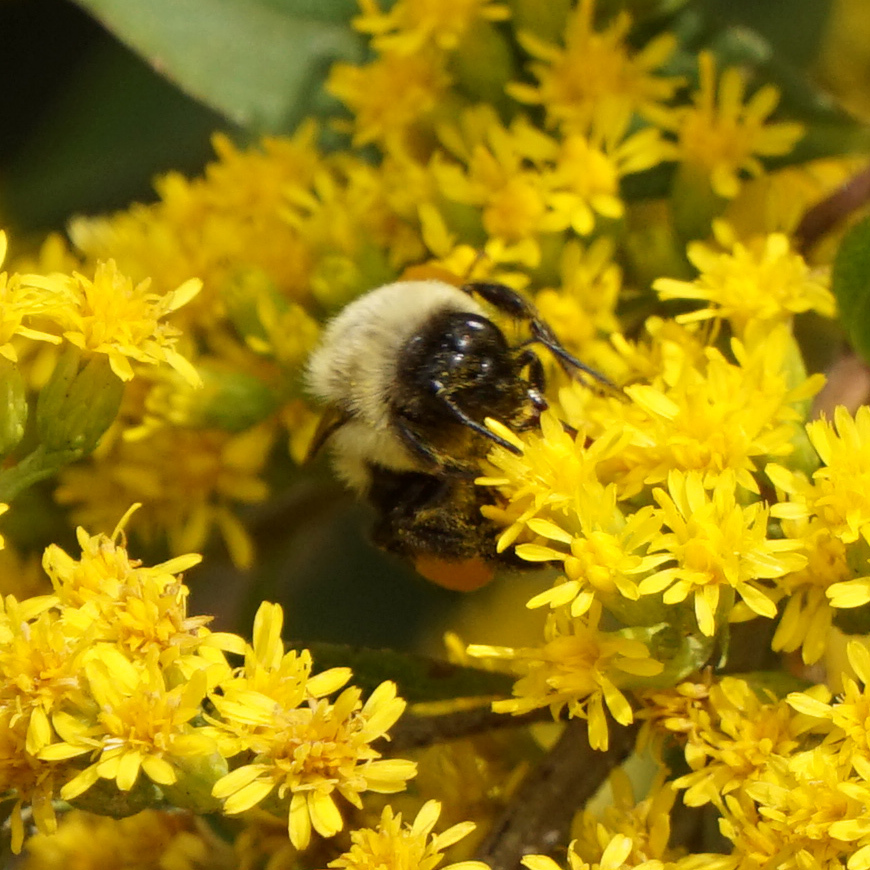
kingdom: Animalia
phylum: Arthropoda
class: Insecta
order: Hymenoptera
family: Apidae
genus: Bombus
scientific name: Bombus impatiens
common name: Common eastern bumble bee
